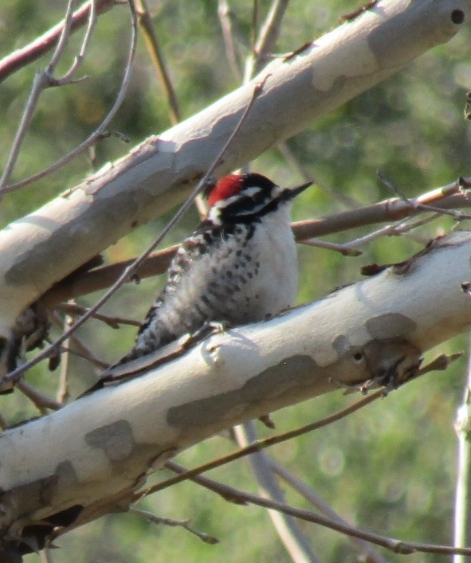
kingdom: Animalia
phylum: Chordata
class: Aves
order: Piciformes
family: Picidae
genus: Dryobates
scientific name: Dryobates nuttallii
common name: Nuttall's woodpecker
